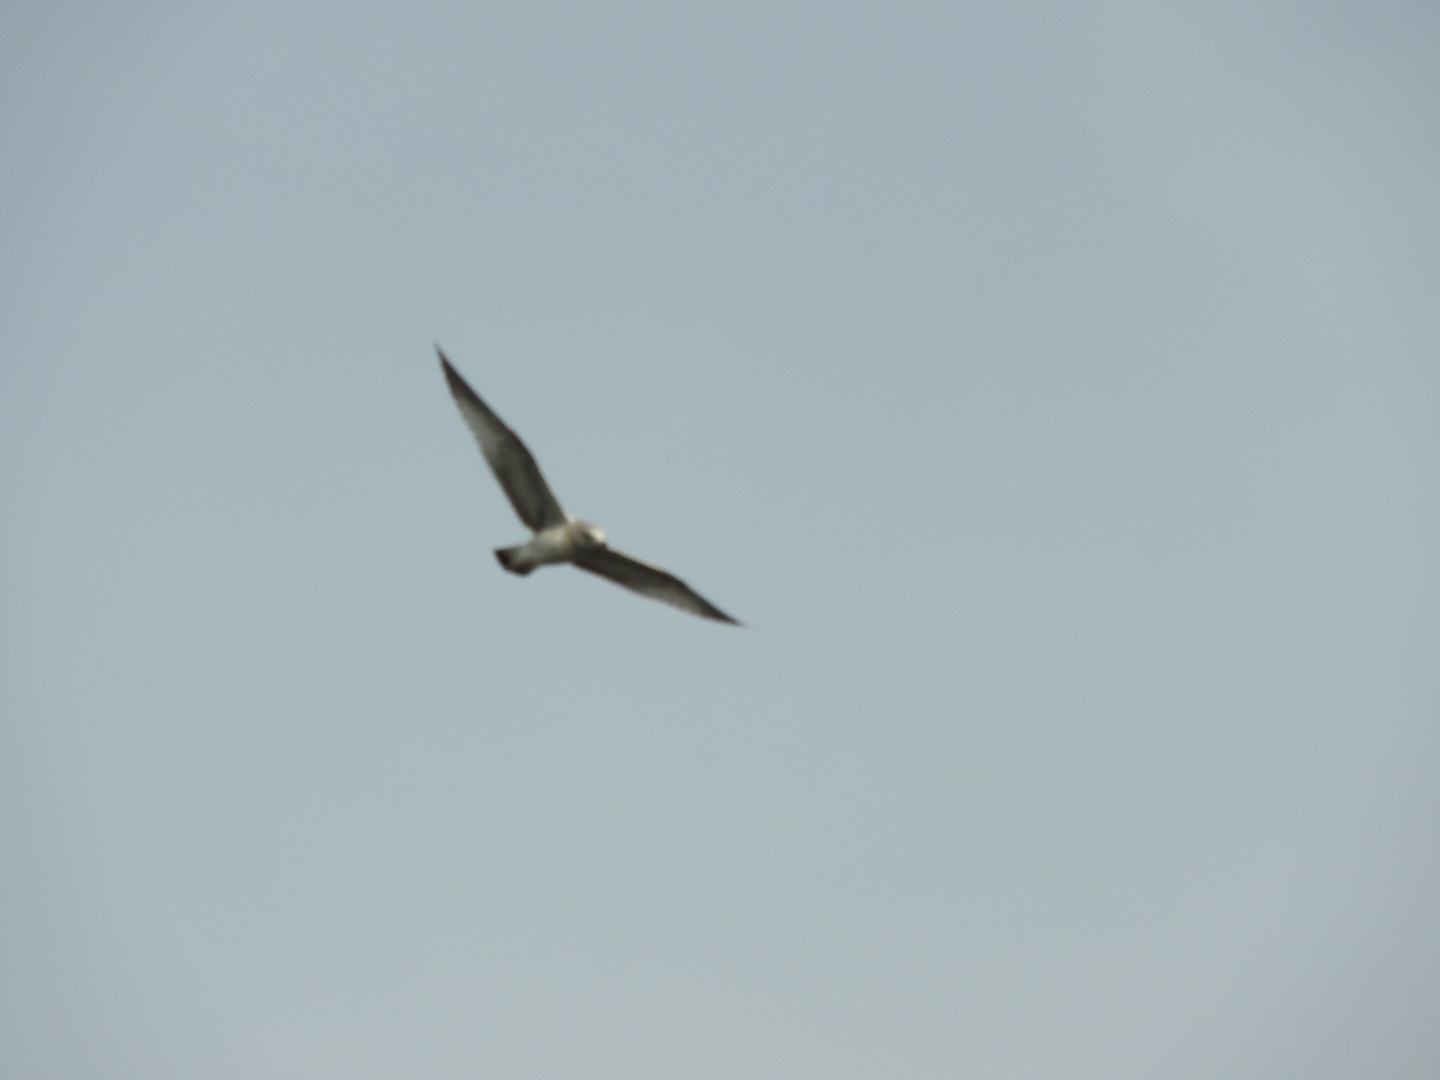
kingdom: Animalia
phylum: Chordata
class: Aves
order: Accipitriformes
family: Accipitridae
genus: Elanus
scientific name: Elanus leucurus
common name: White-tailed kite
